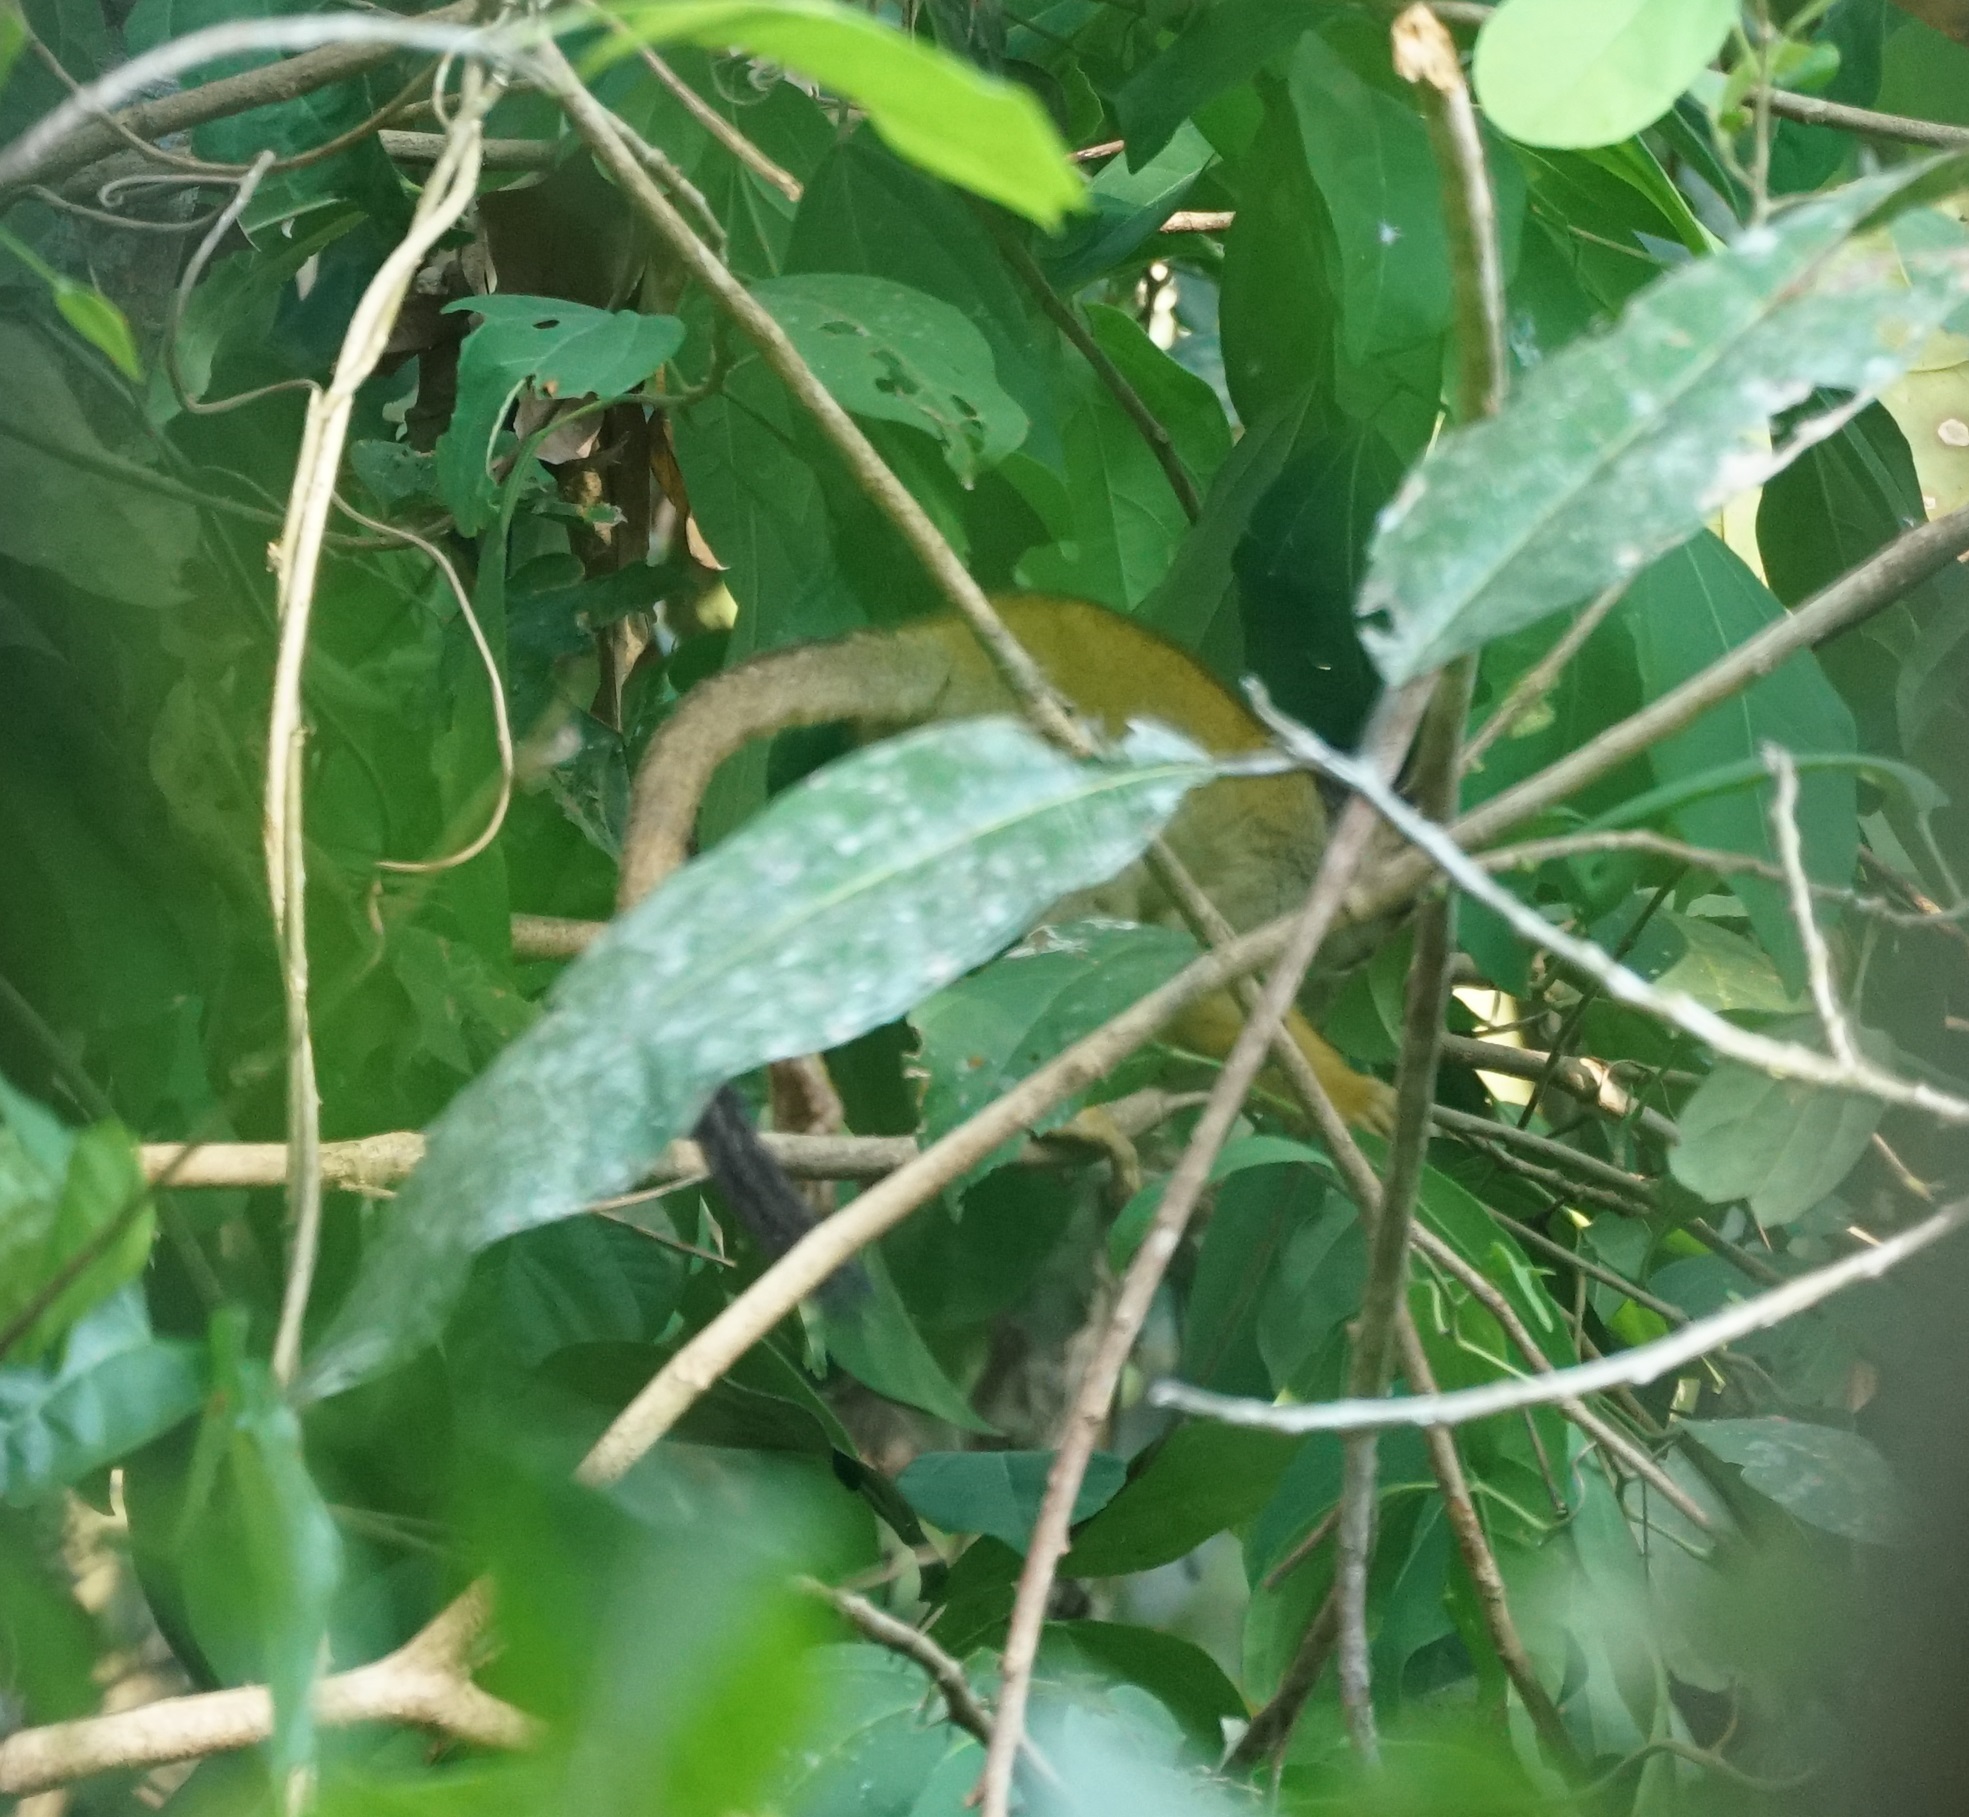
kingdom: Animalia
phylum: Chordata
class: Mammalia
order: Primates
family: Cebidae
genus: Saimiri
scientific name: Saimiri boliviensis
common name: Black-capped squirrel monkey
